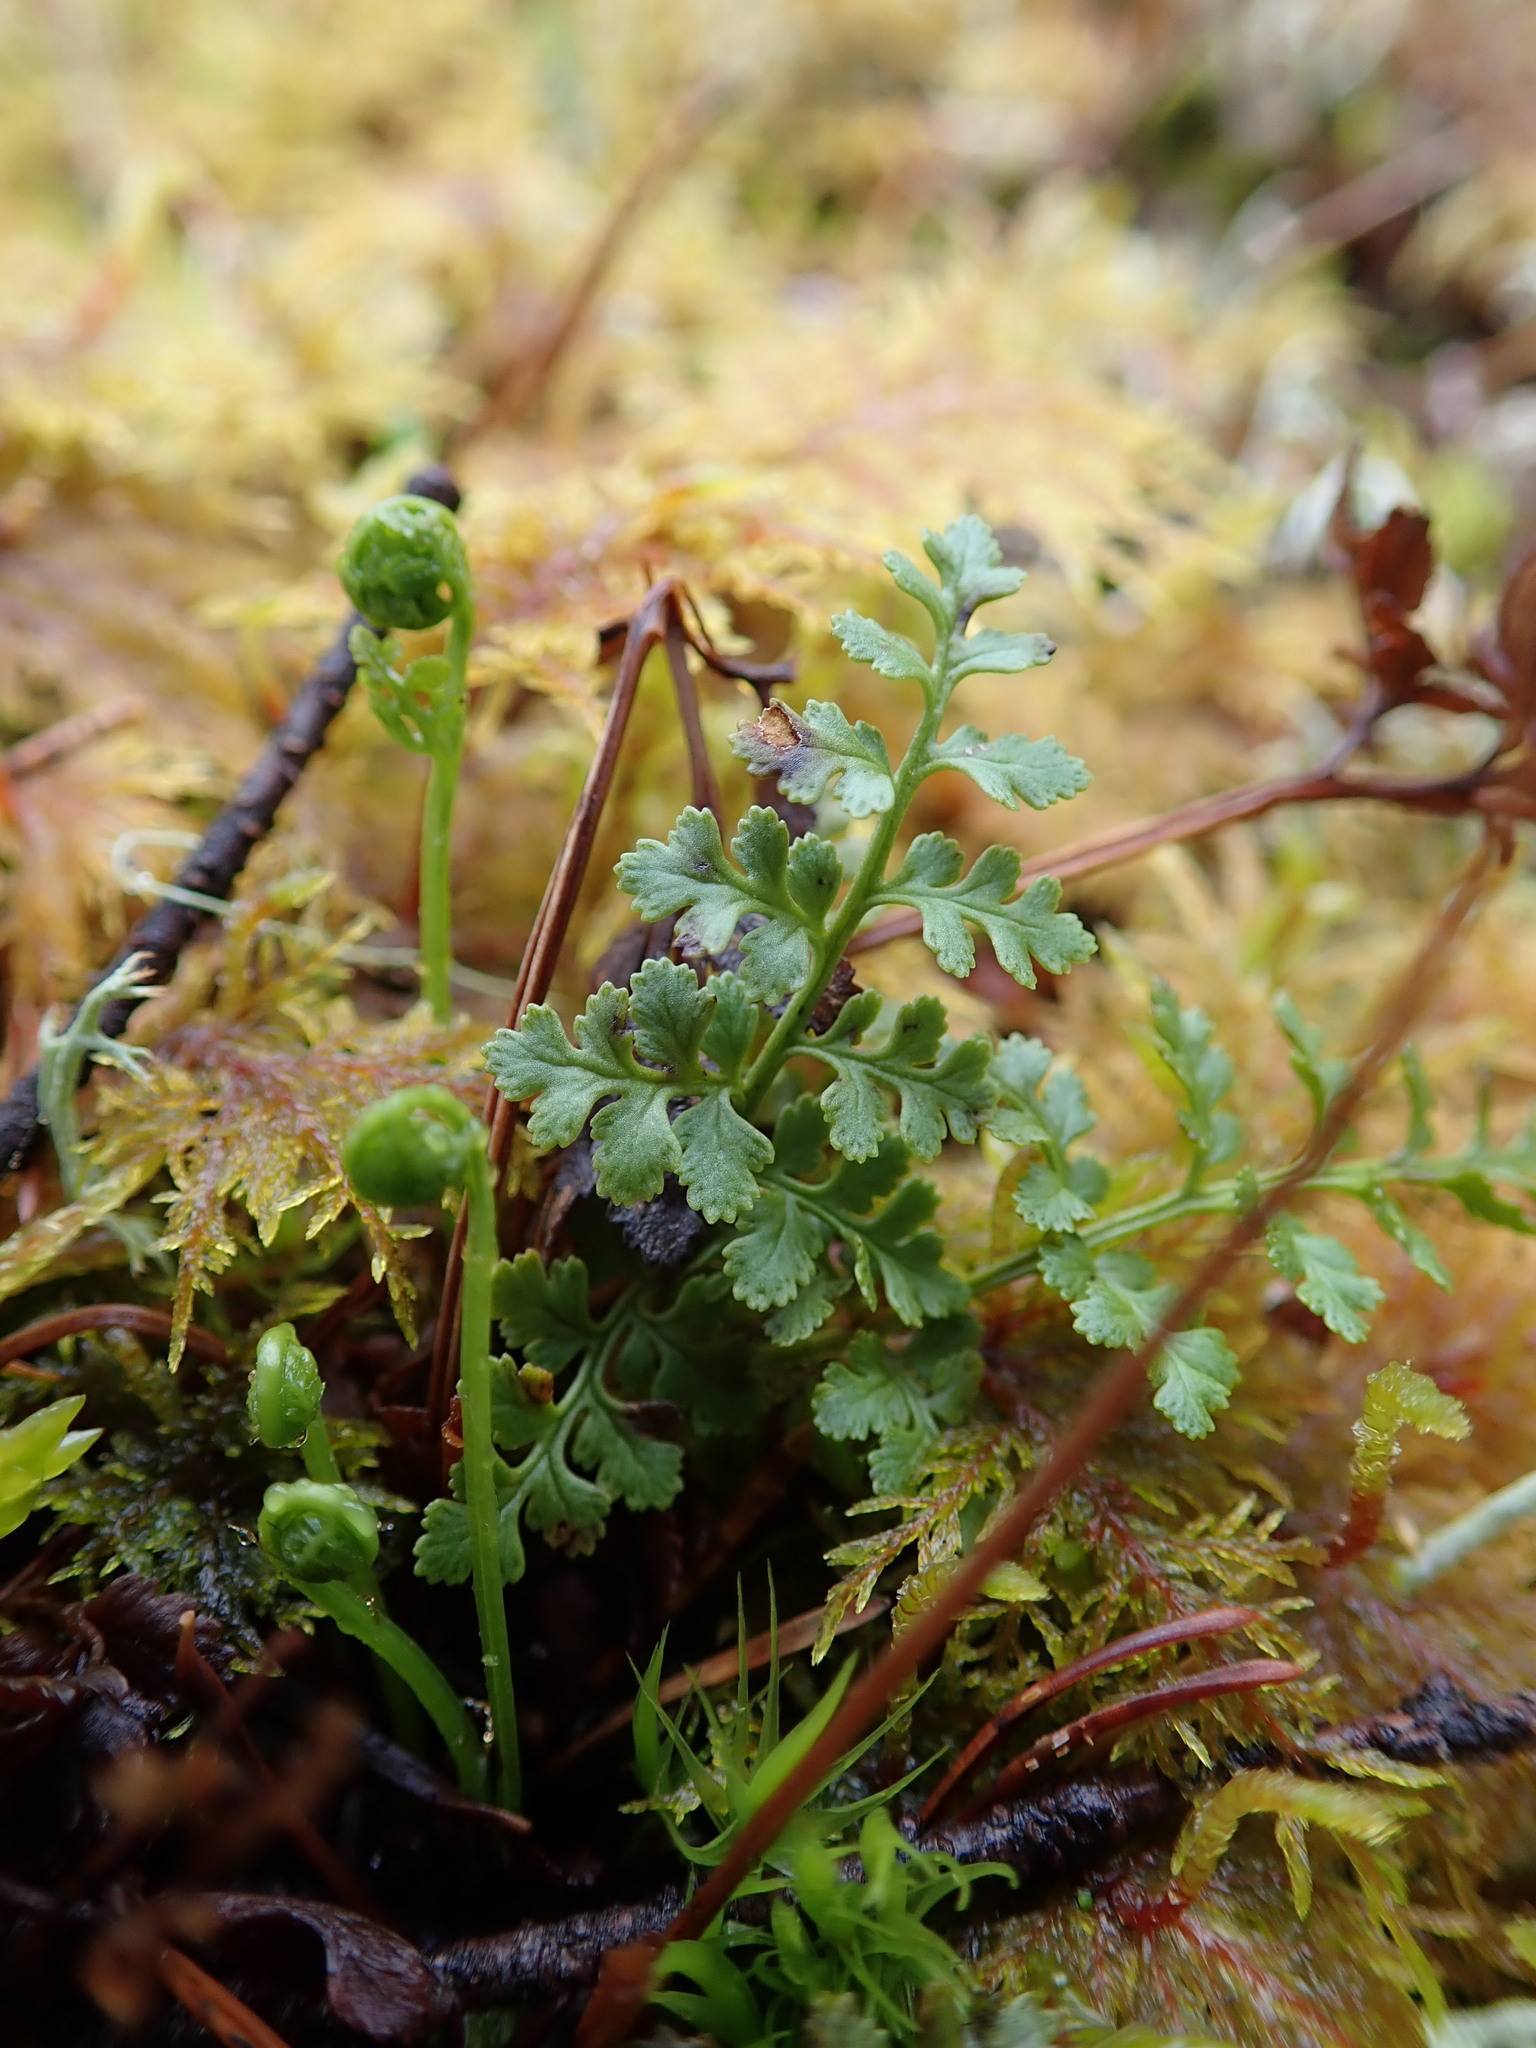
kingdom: Plantae
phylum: Tracheophyta
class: Polypodiopsida
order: Polypodiales
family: Pteridaceae
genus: Cryptogramma
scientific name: Cryptogramma acrostichoides
